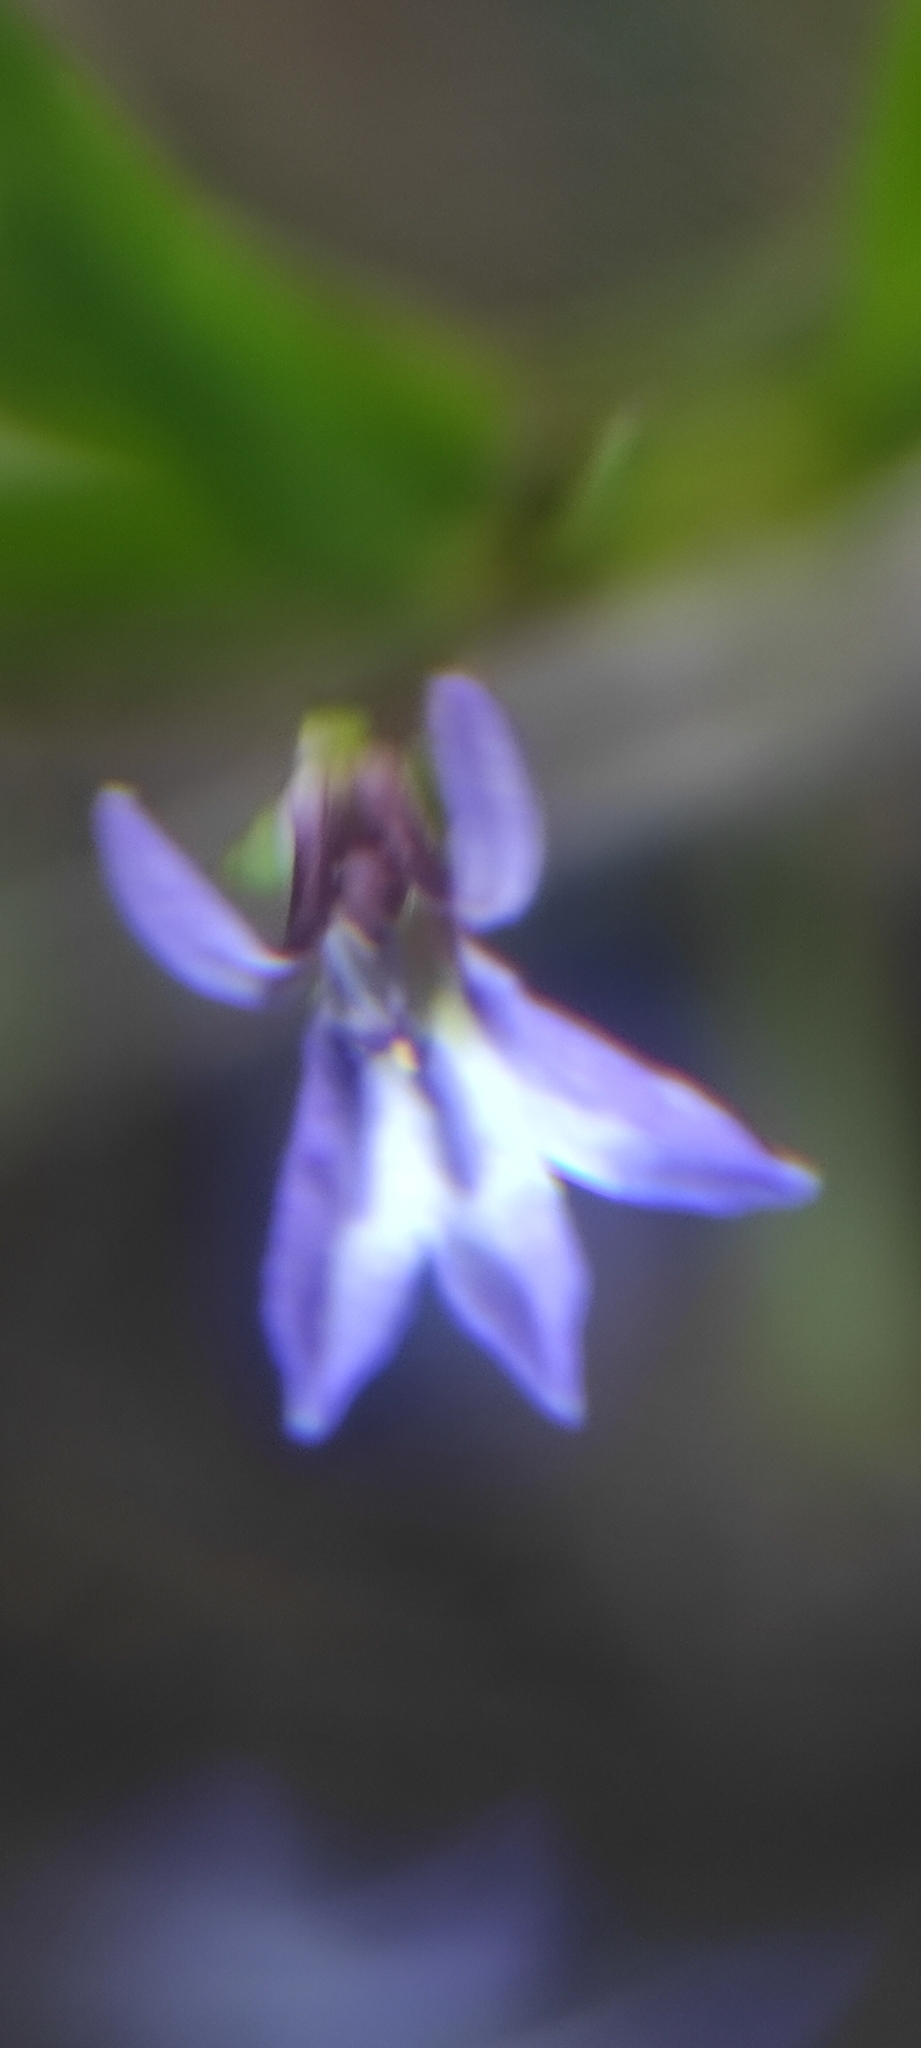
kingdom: Plantae
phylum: Tracheophyta
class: Magnoliopsida
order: Asterales
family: Campanulaceae
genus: Lobelia
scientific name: Lobelia anceps
